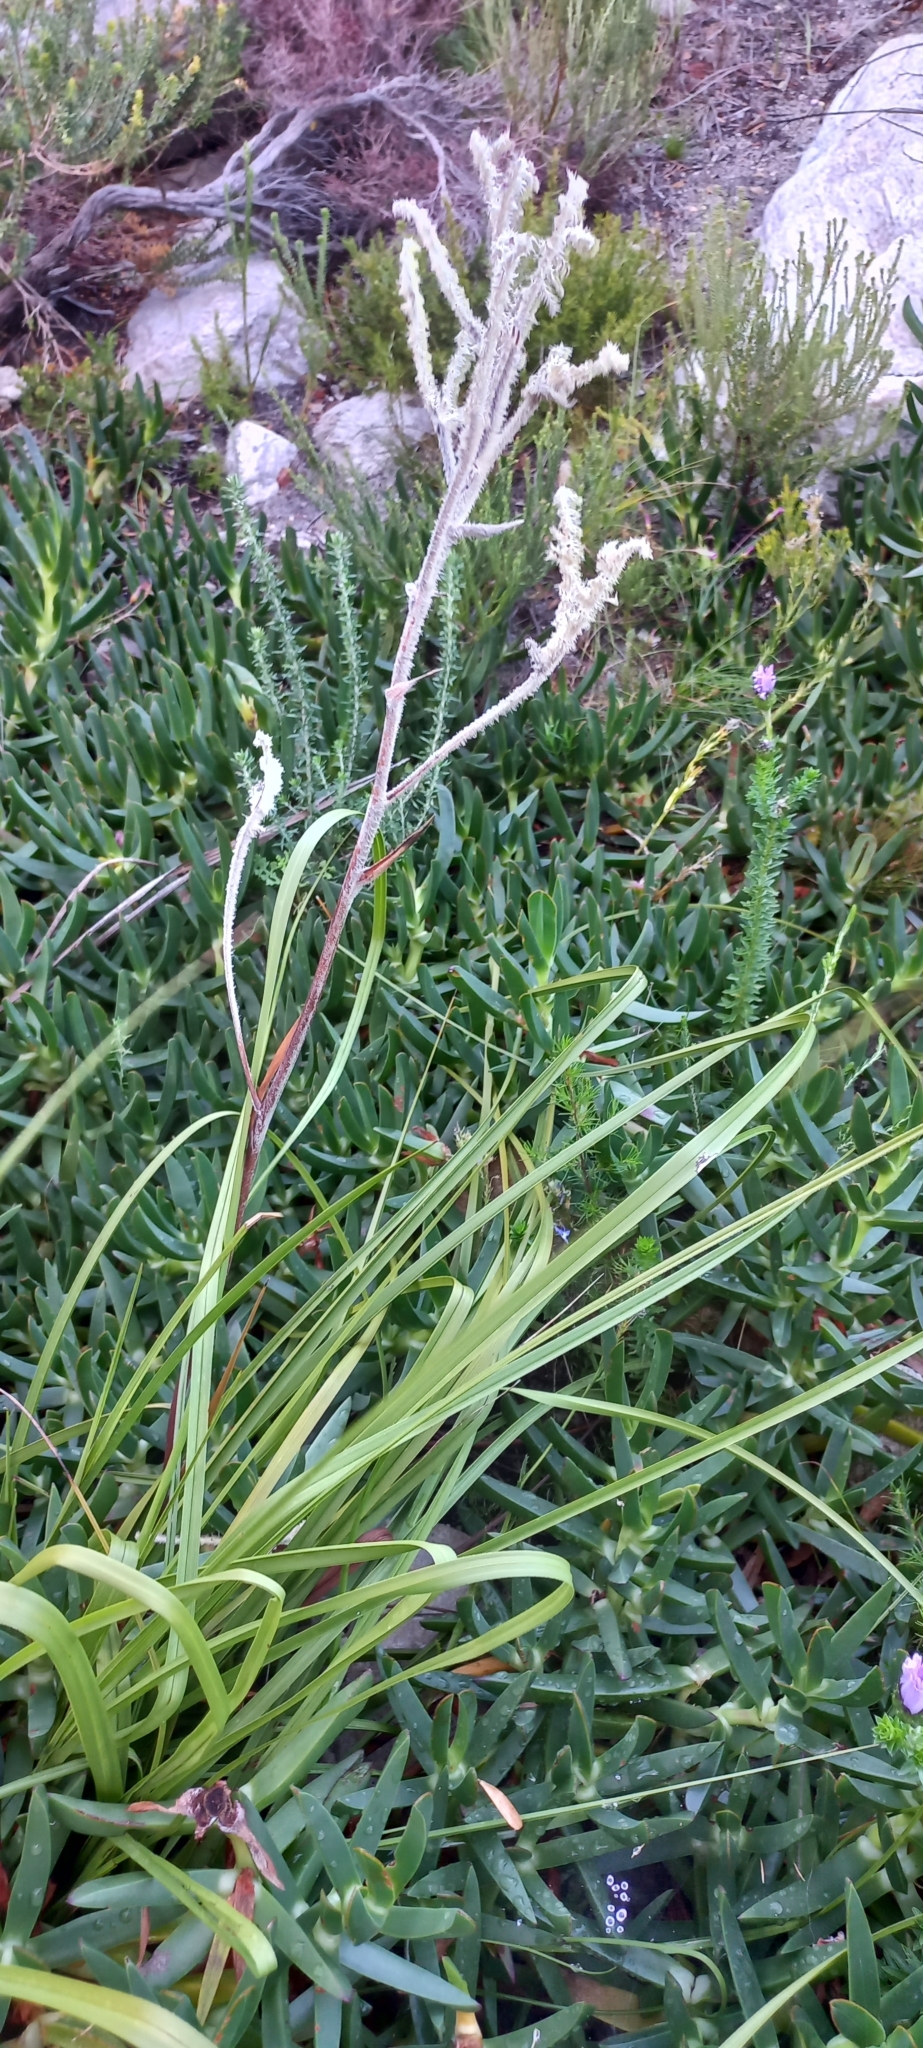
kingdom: Plantae
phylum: Tracheophyta
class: Liliopsida
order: Asparagales
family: Lanariaceae
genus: Lanaria
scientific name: Lanaria lanata
